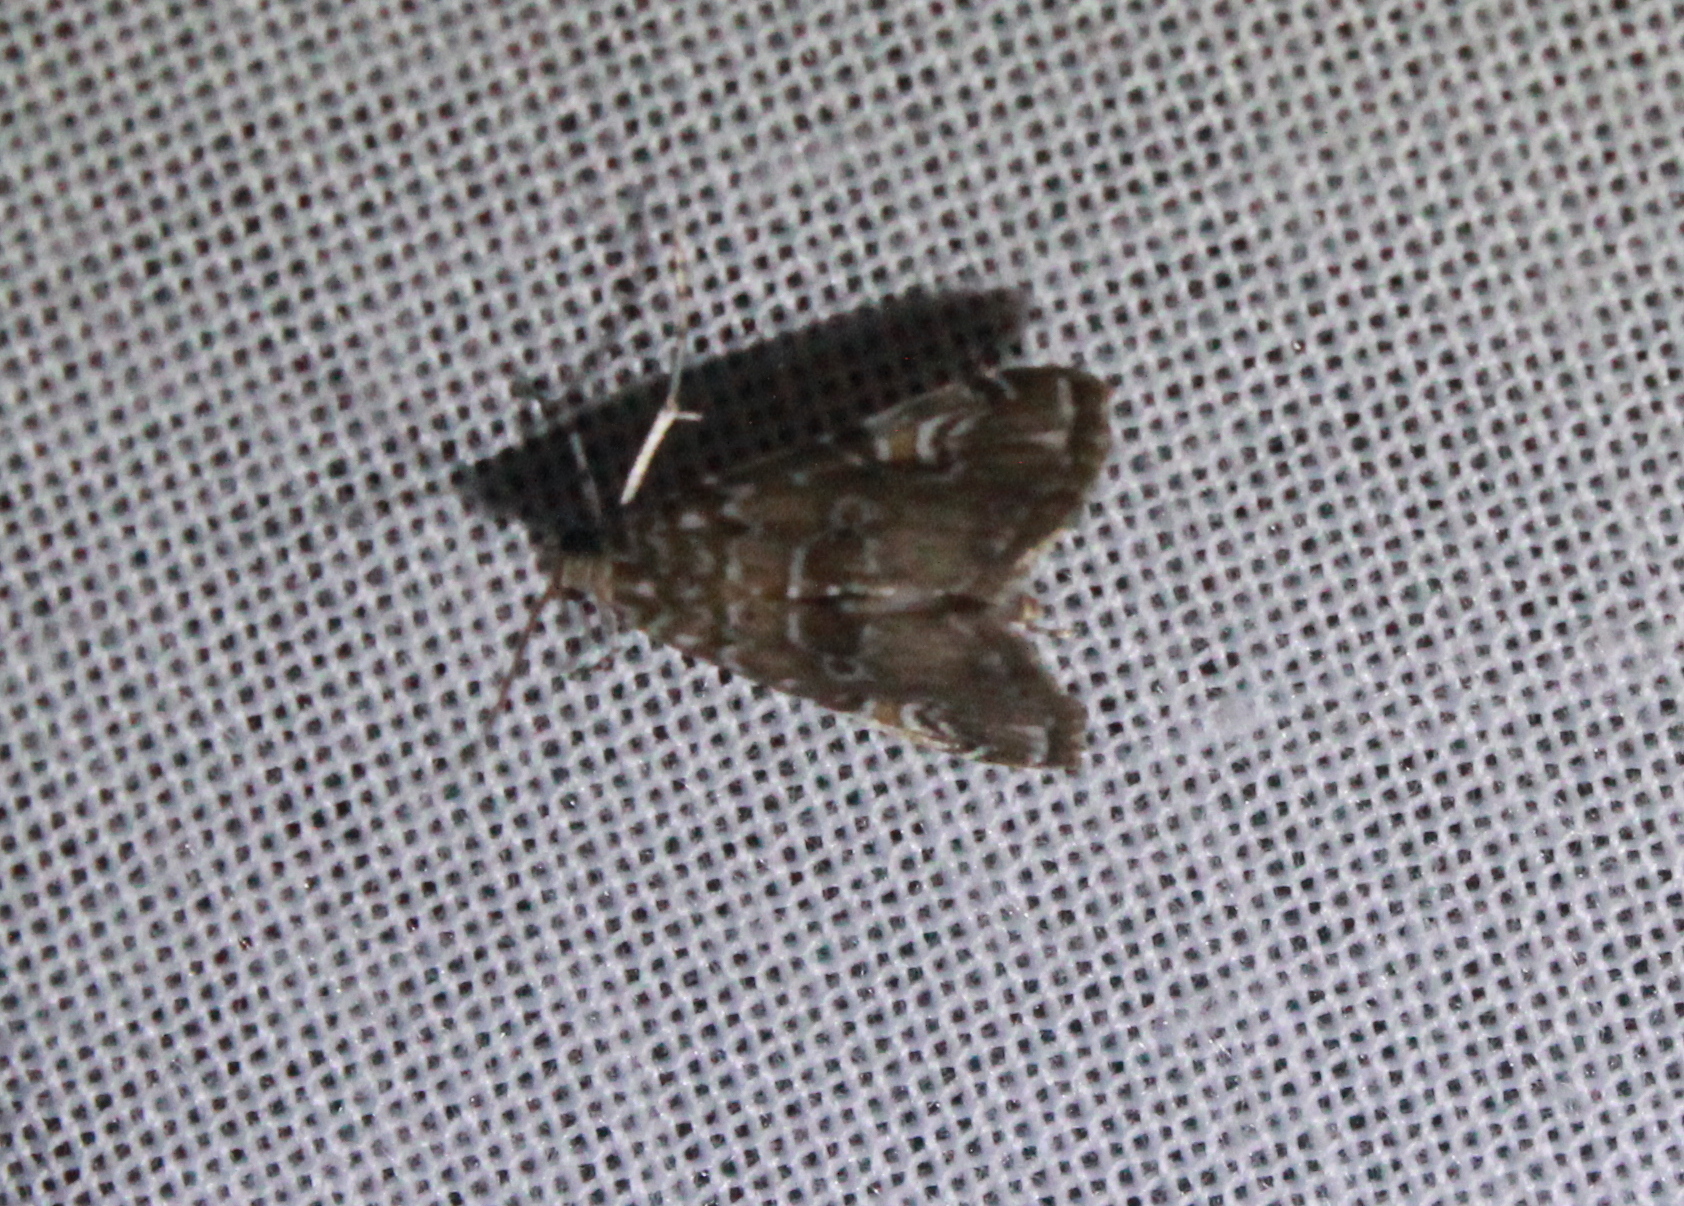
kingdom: Animalia
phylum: Arthropoda
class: Insecta
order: Lepidoptera
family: Crambidae
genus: Elophila
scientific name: Elophila gyralis
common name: Waterlily borer moth
